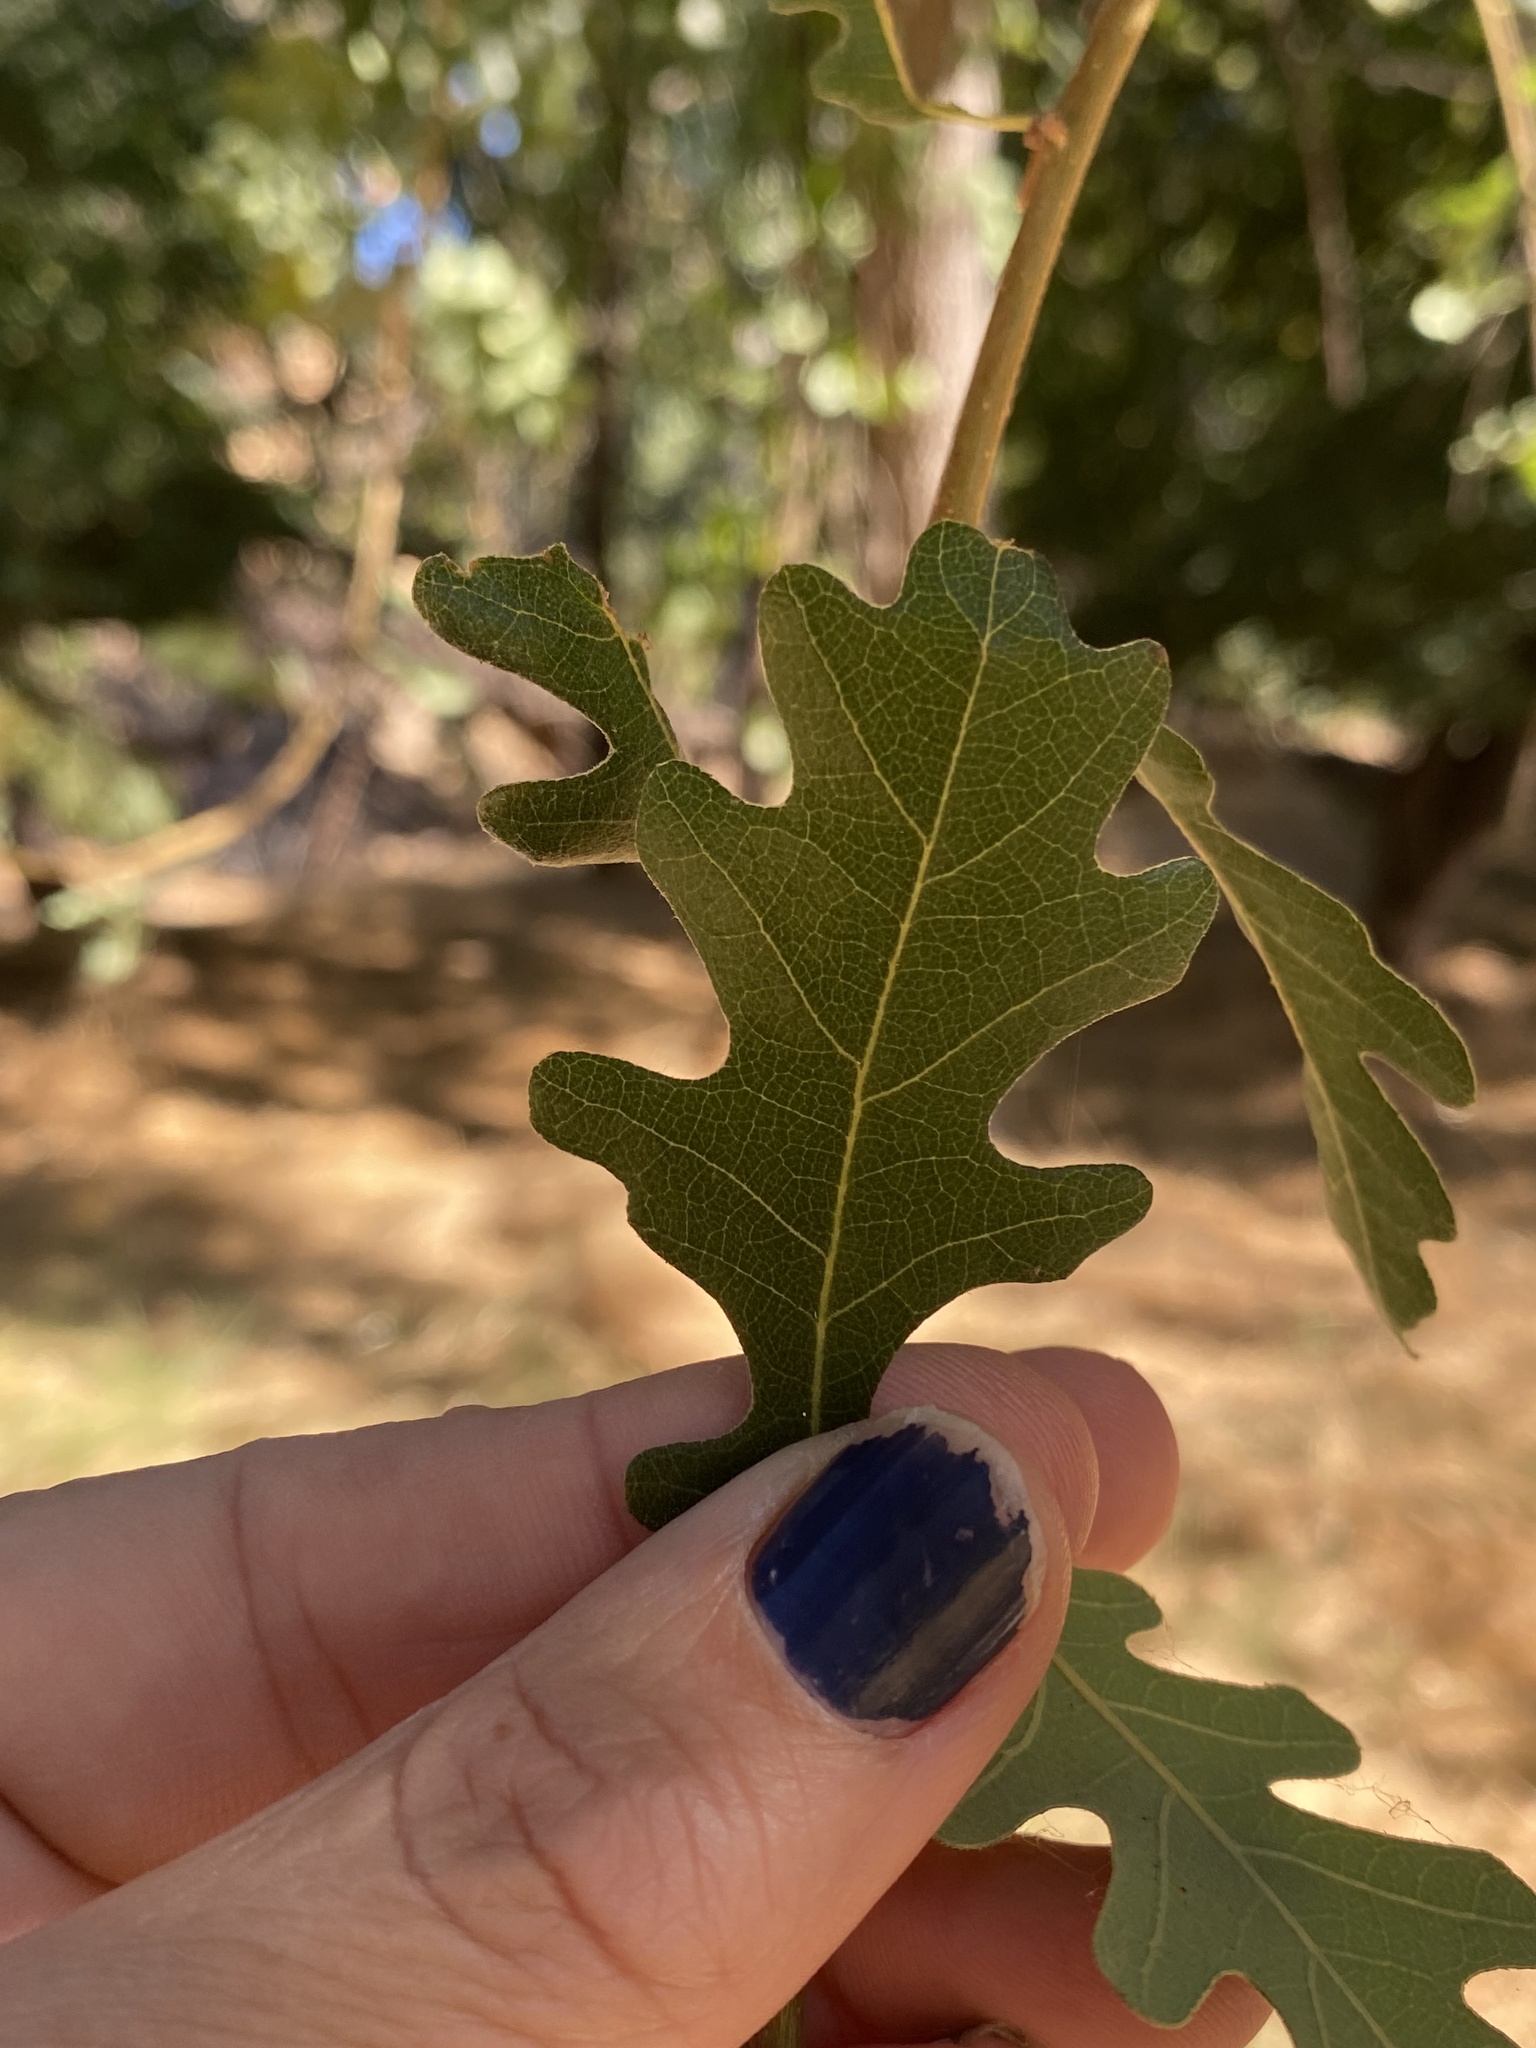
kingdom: Plantae
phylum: Tracheophyta
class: Magnoliopsida
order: Fagales
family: Fagaceae
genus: Quercus
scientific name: Quercus lobata
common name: Valley oak
